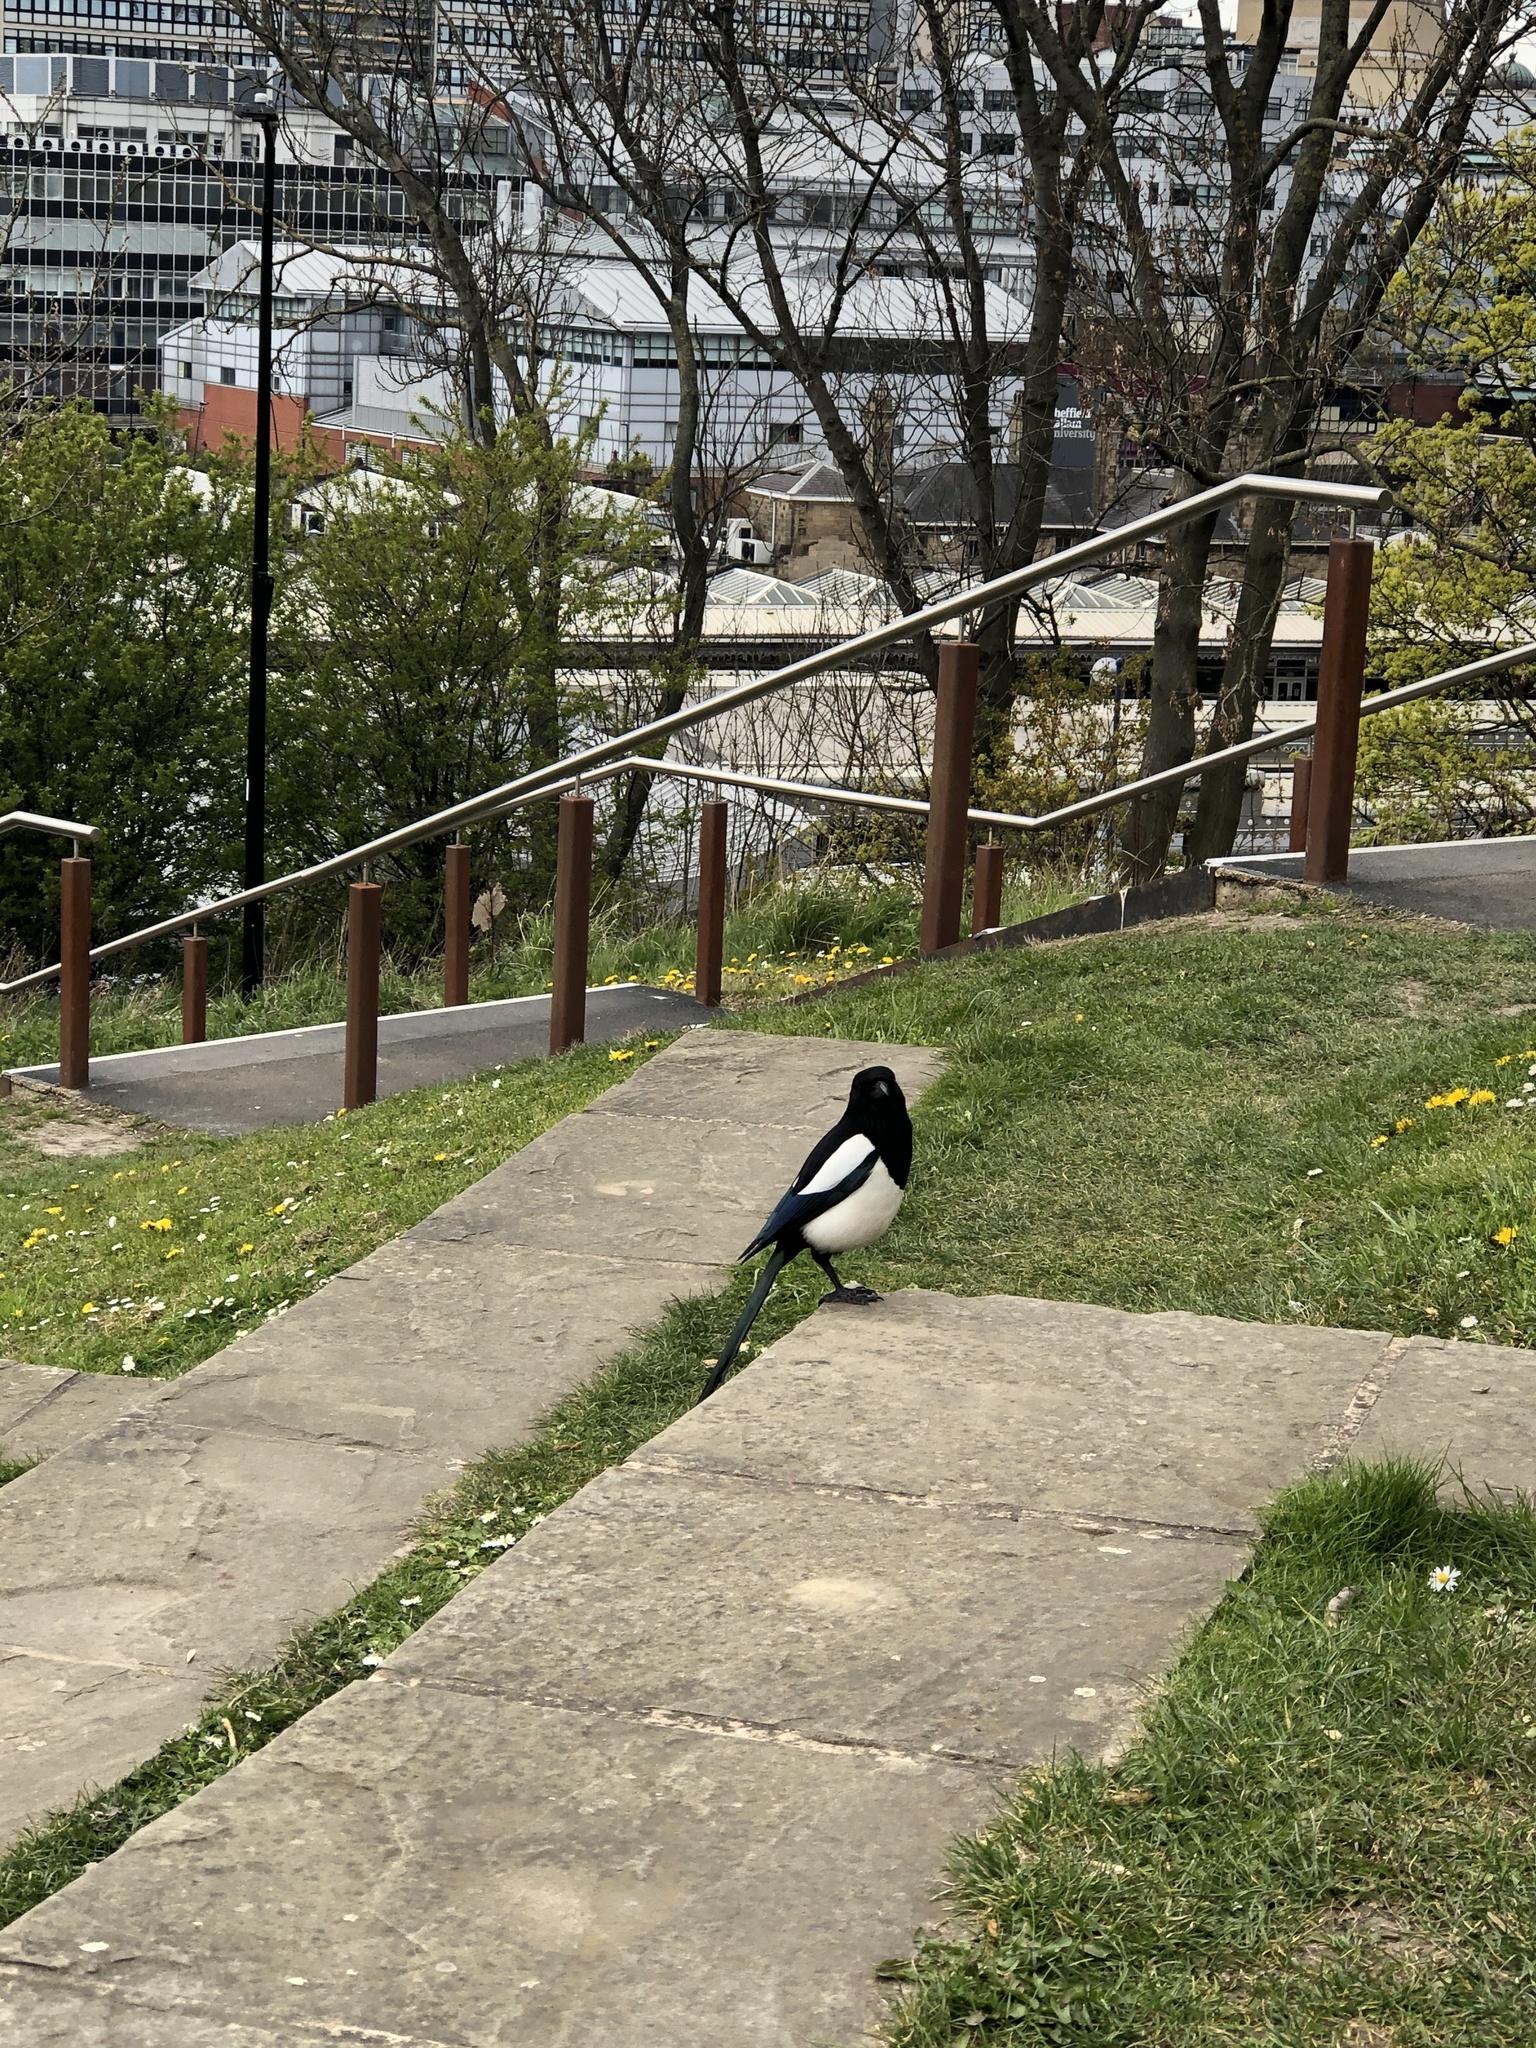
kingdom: Animalia
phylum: Chordata
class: Aves
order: Passeriformes
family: Corvidae
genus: Pica
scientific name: Pica pica
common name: Eurasian magpie
